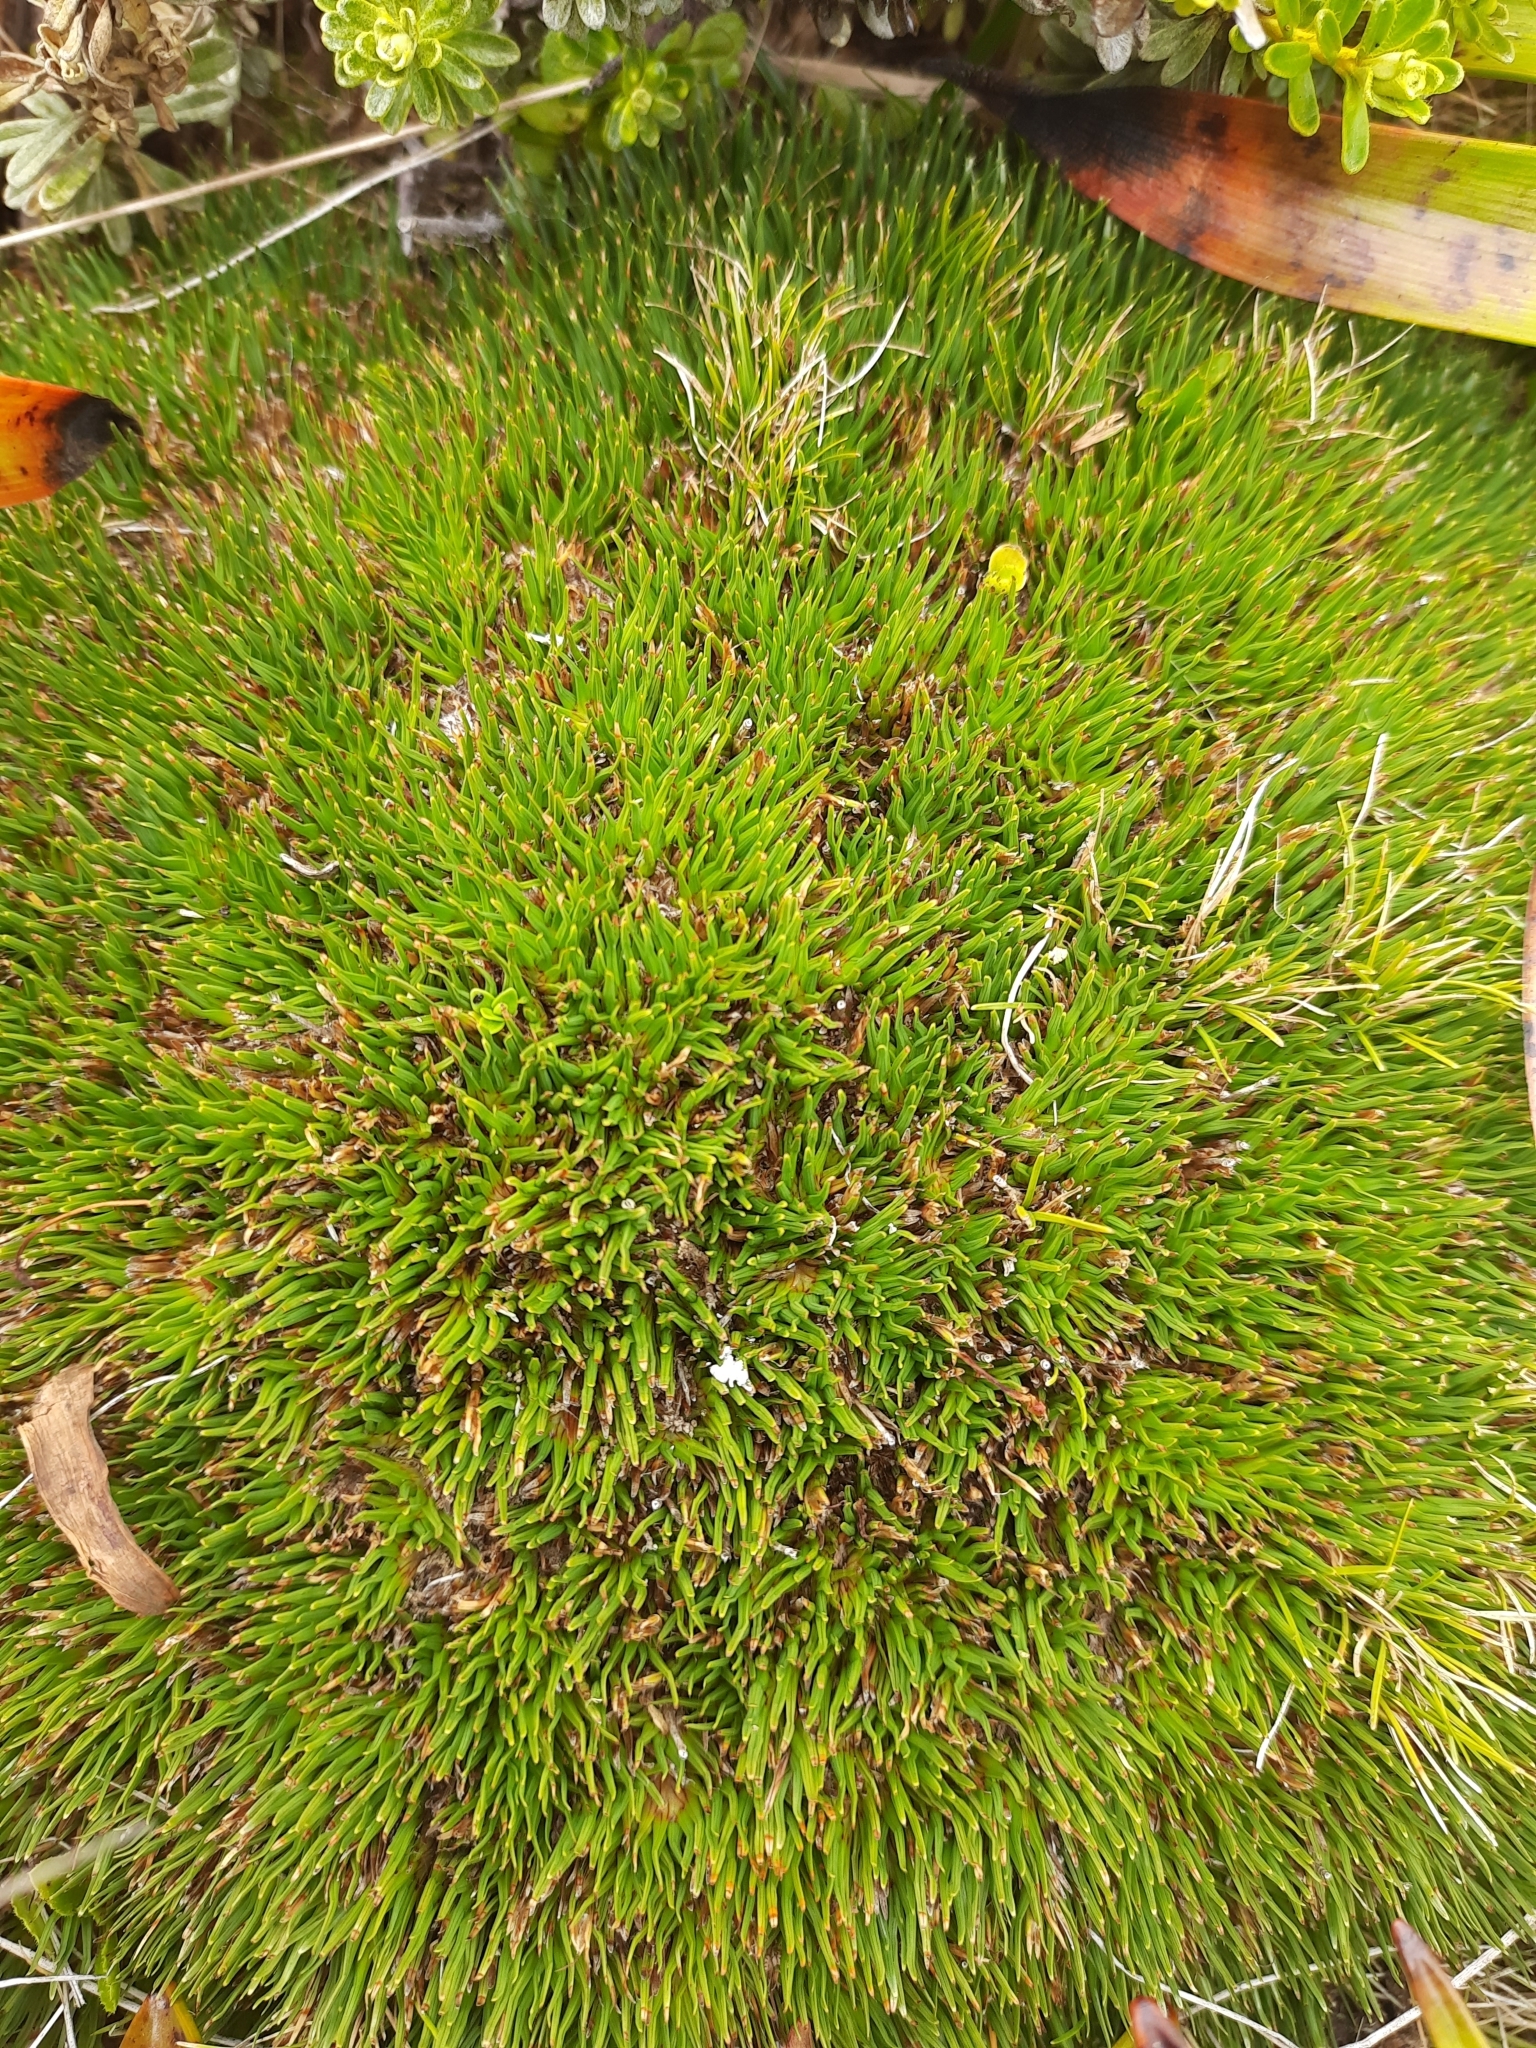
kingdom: Plantae
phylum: Tracheophyta
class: Liliopsida
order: Poales
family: Cyperaceae
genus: Oreobolus
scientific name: Oreobolus pectinatus
